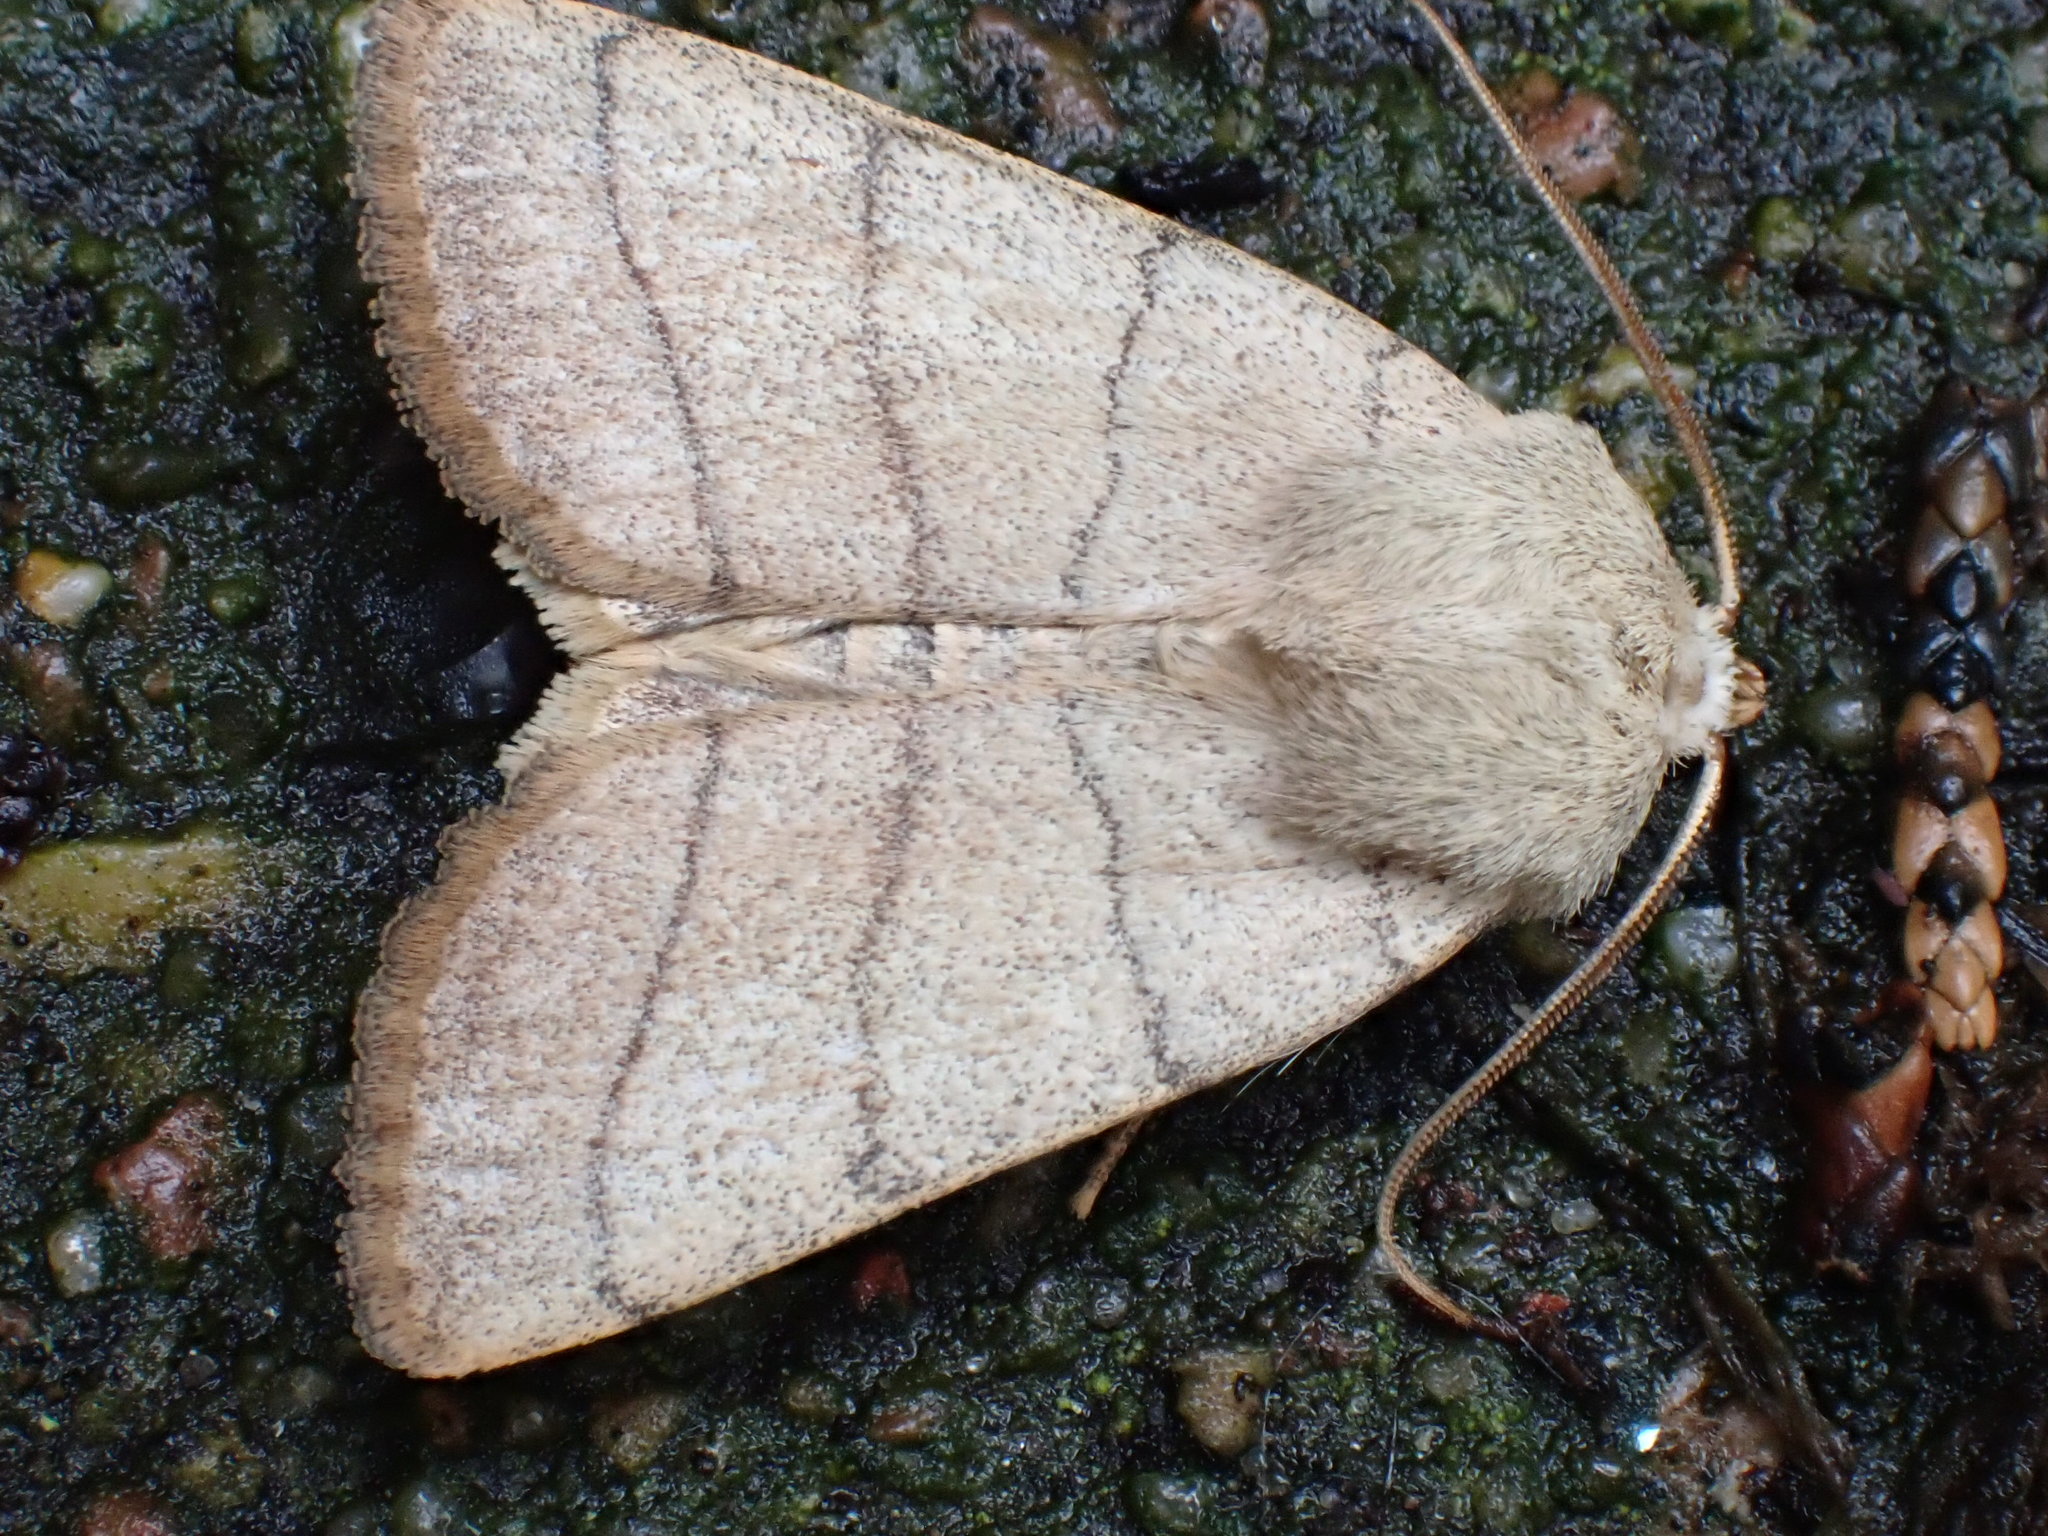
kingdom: Animalia
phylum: Arthropoda
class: Insecta
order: Lepidoptera
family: Noctuidae
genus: Charanyca
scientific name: Charanyca trigrammica
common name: Treble lines
